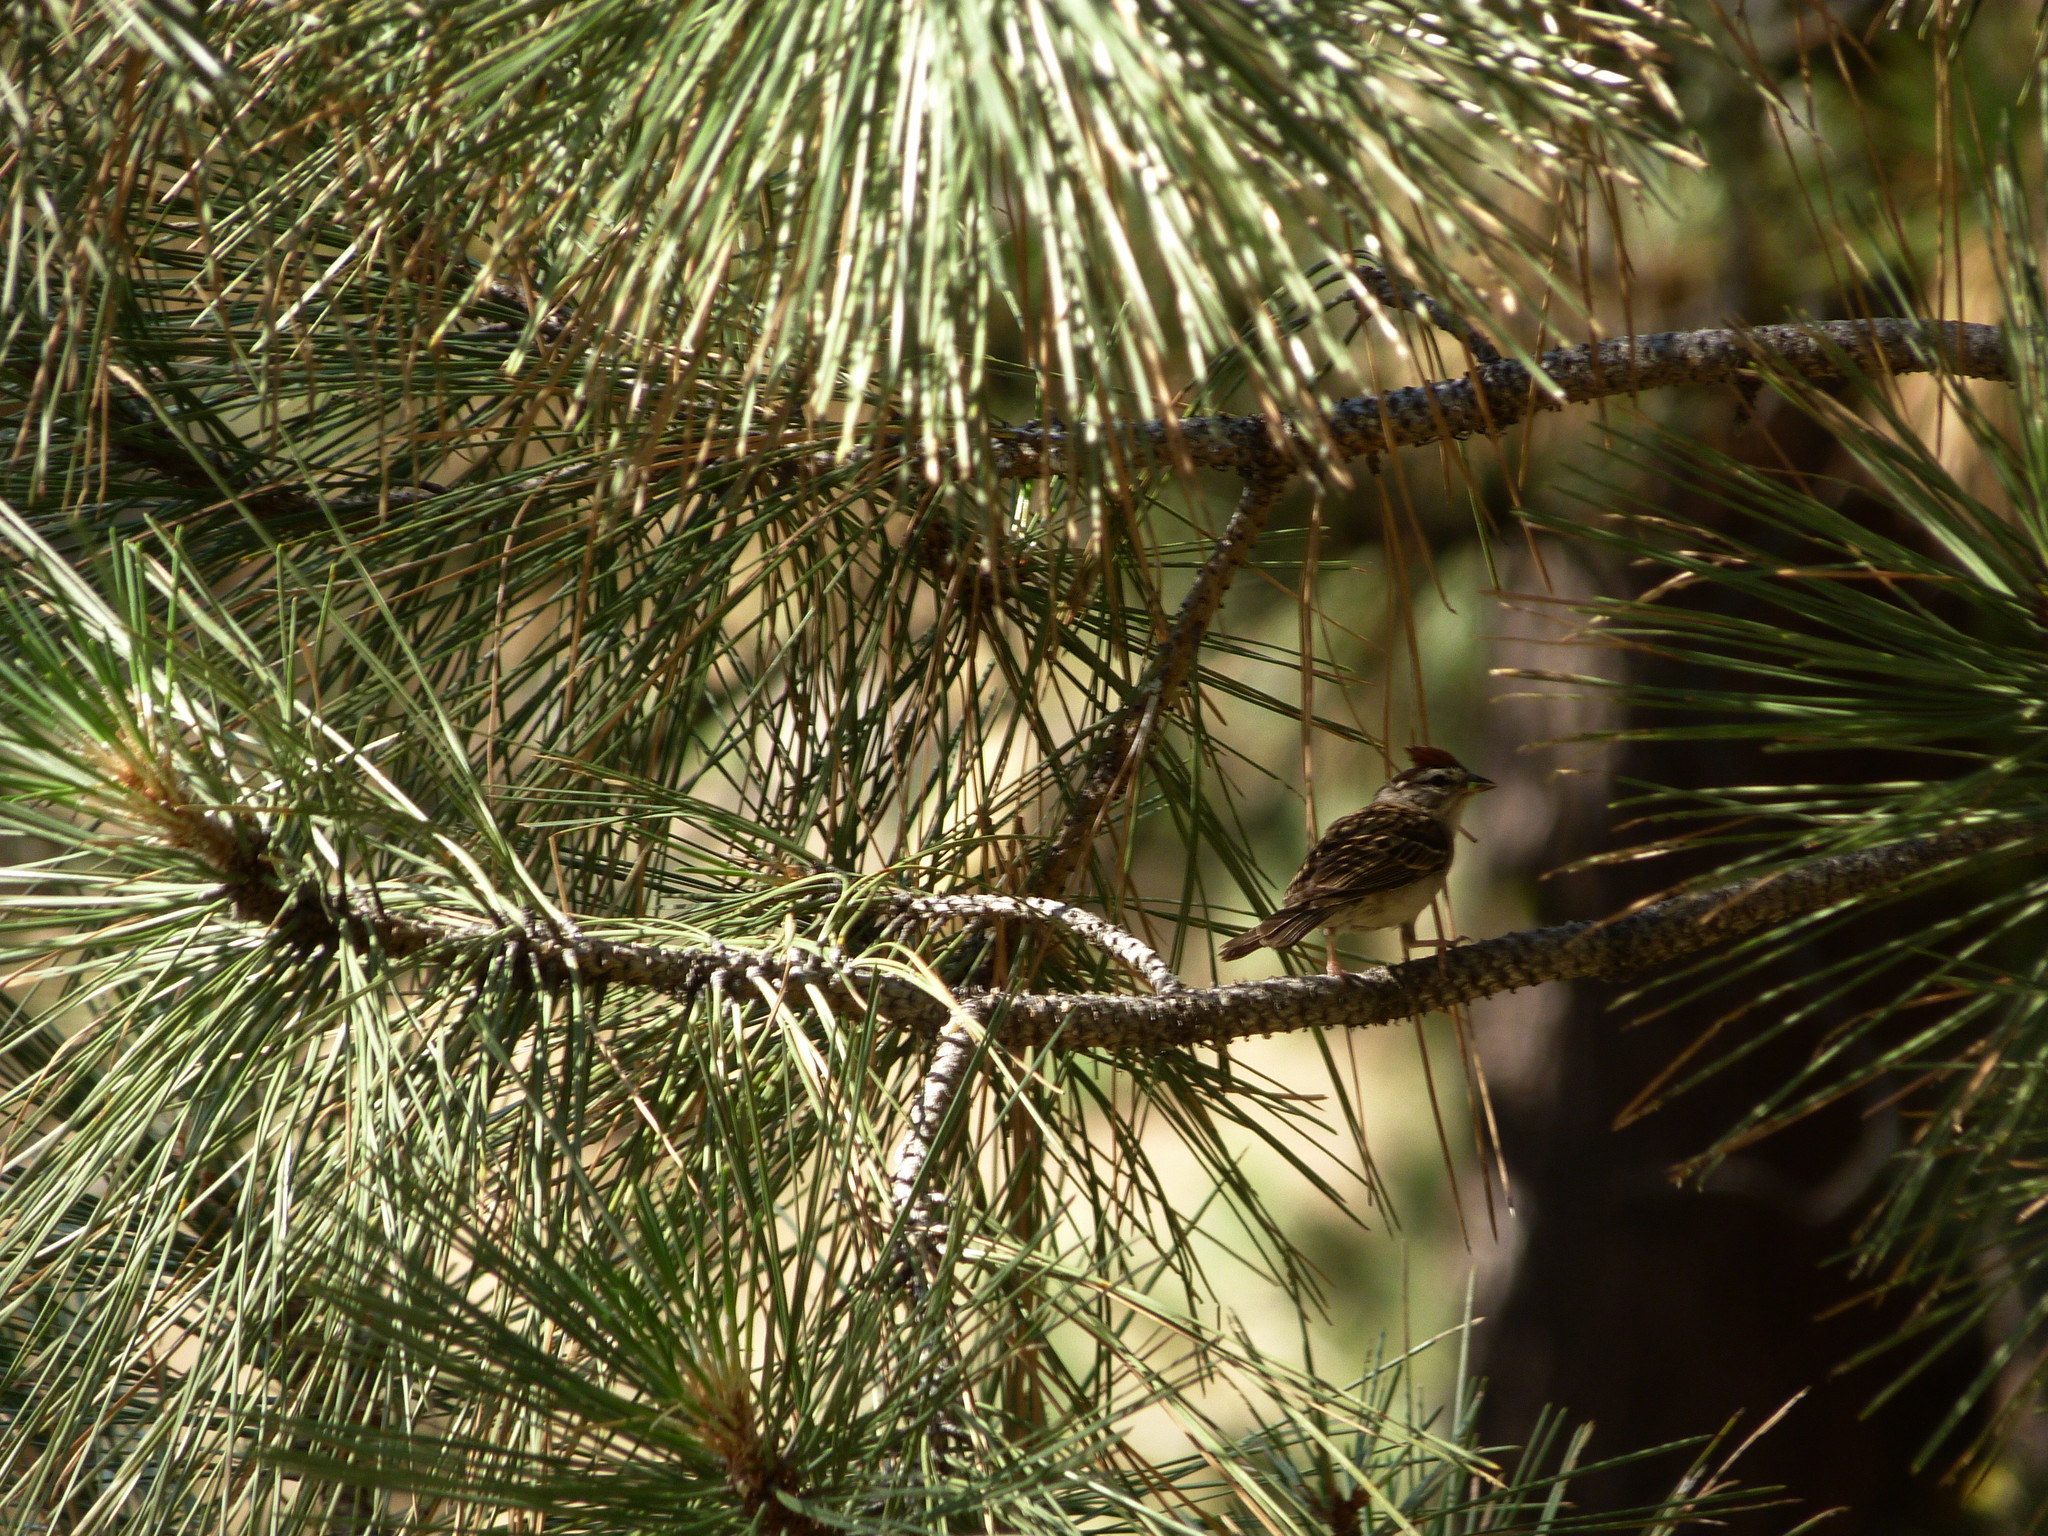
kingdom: Animalia
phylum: Chordata
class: Aves
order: Passeriformes
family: Passerellidae
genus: Spizella
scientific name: Spizella passerina
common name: Chipping sparrow
